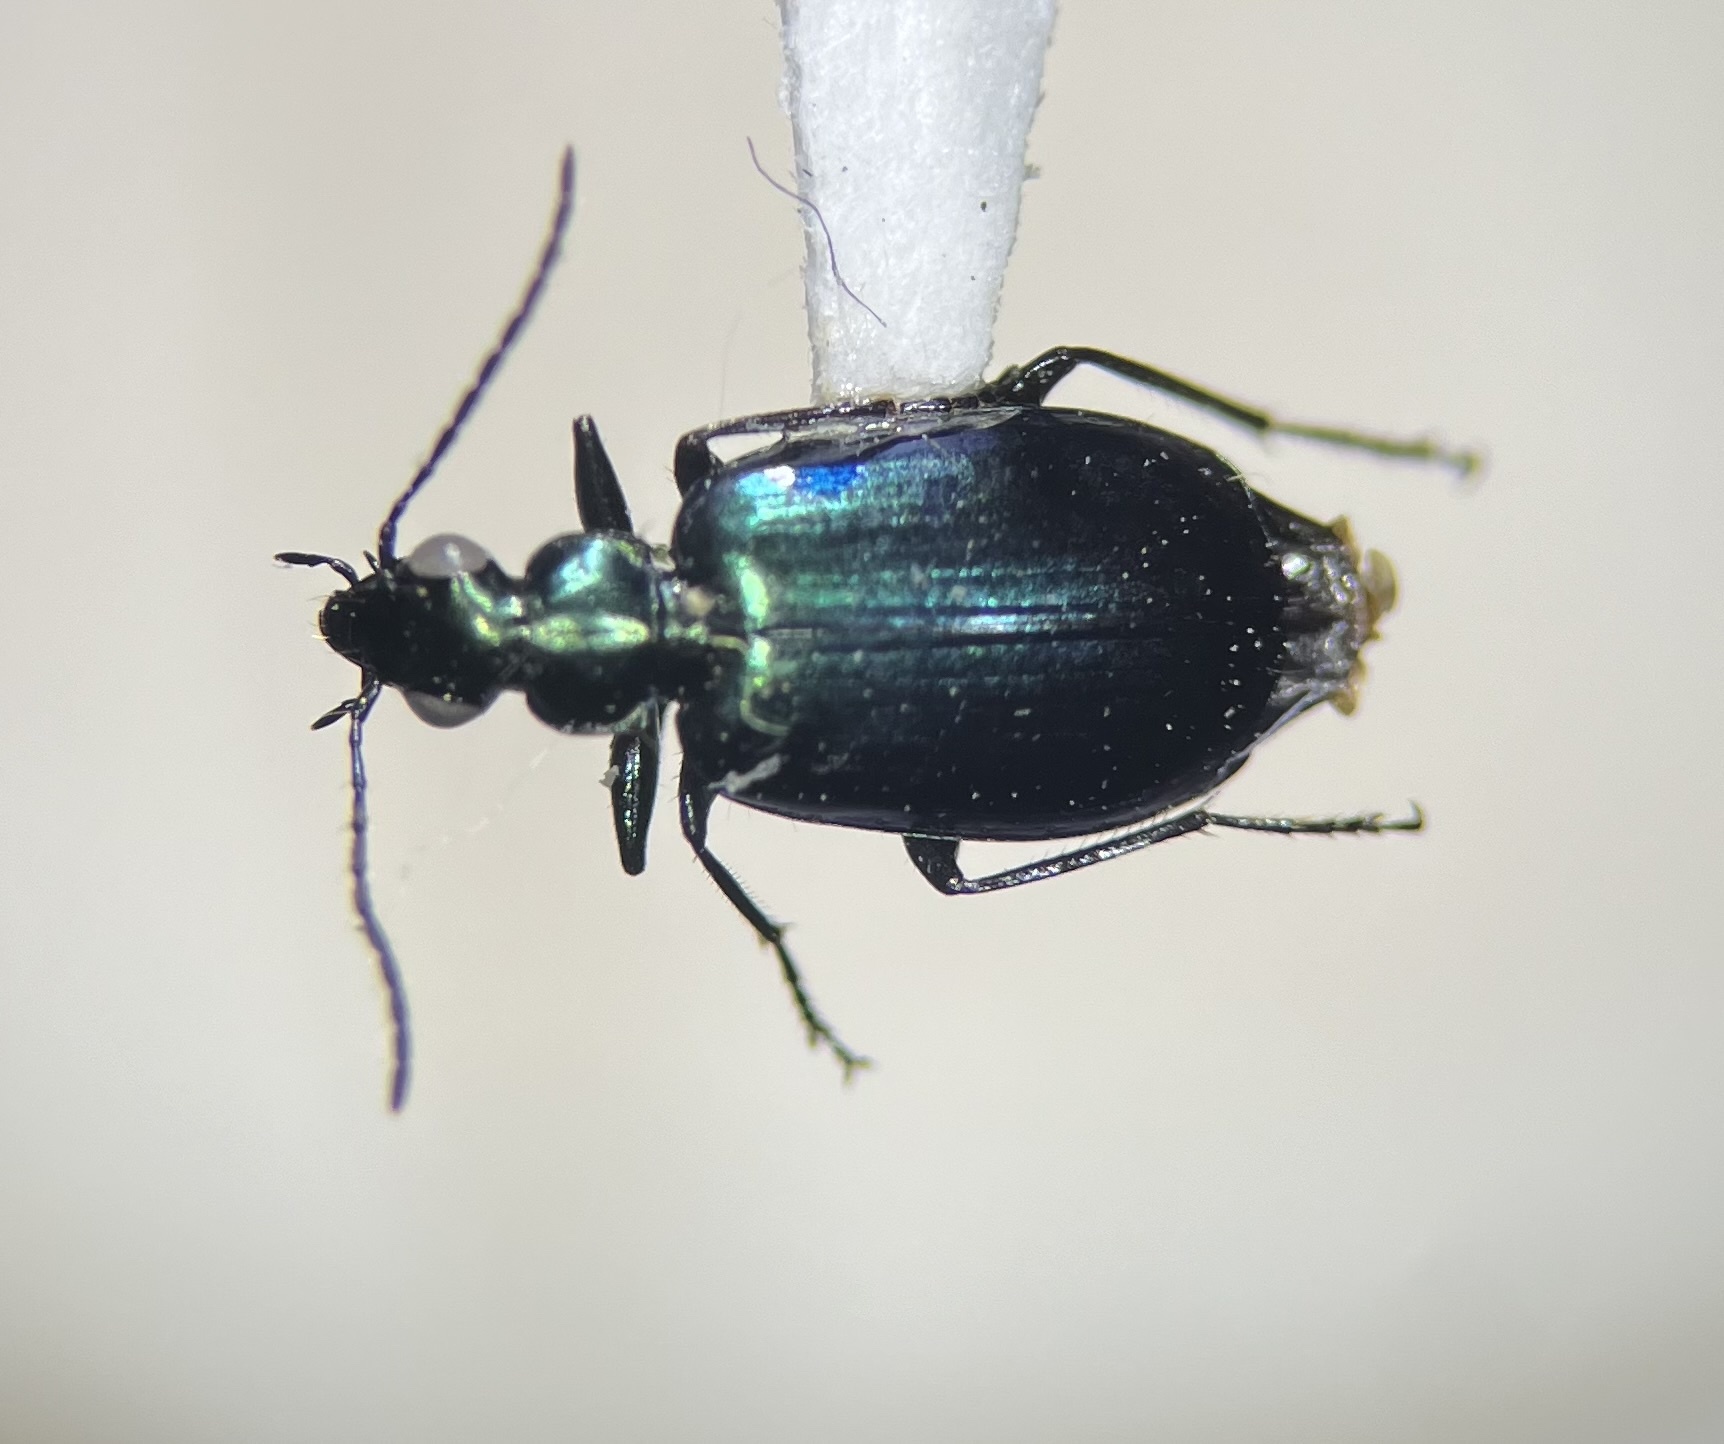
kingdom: Animalia
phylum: Arthropoda
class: Insecta
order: Coleoptera
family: Carabidae
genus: Lebia
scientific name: Lebia viridis
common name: Flower lebia beetle
